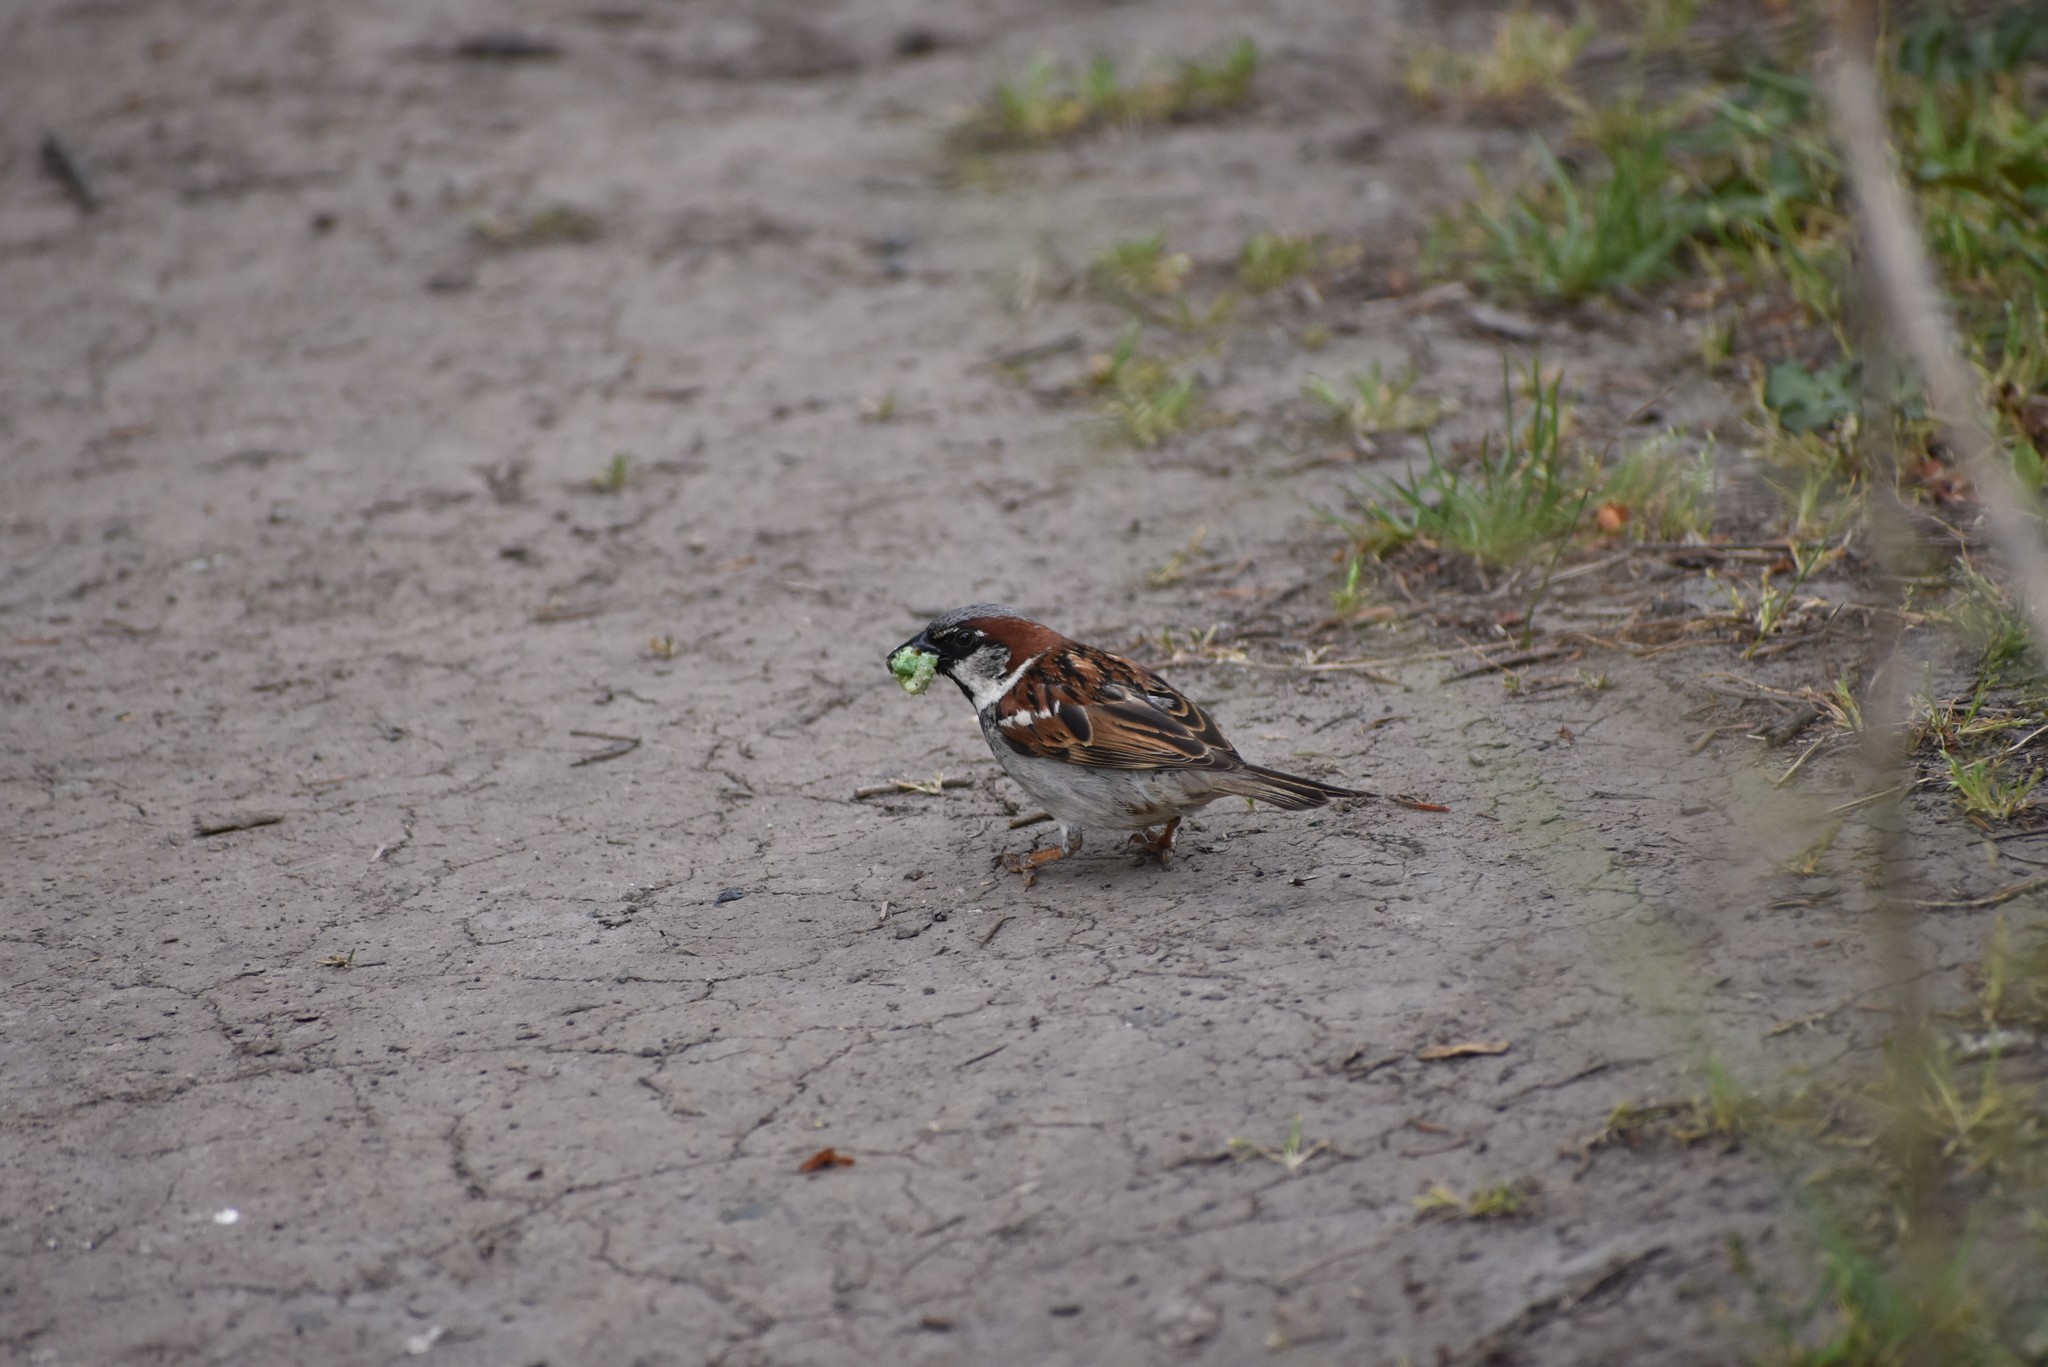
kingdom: Animalia
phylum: Chordata
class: Aves
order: Passeriformes
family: Passeridae
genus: Passer
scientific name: Passer domesticus
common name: House sparrow
